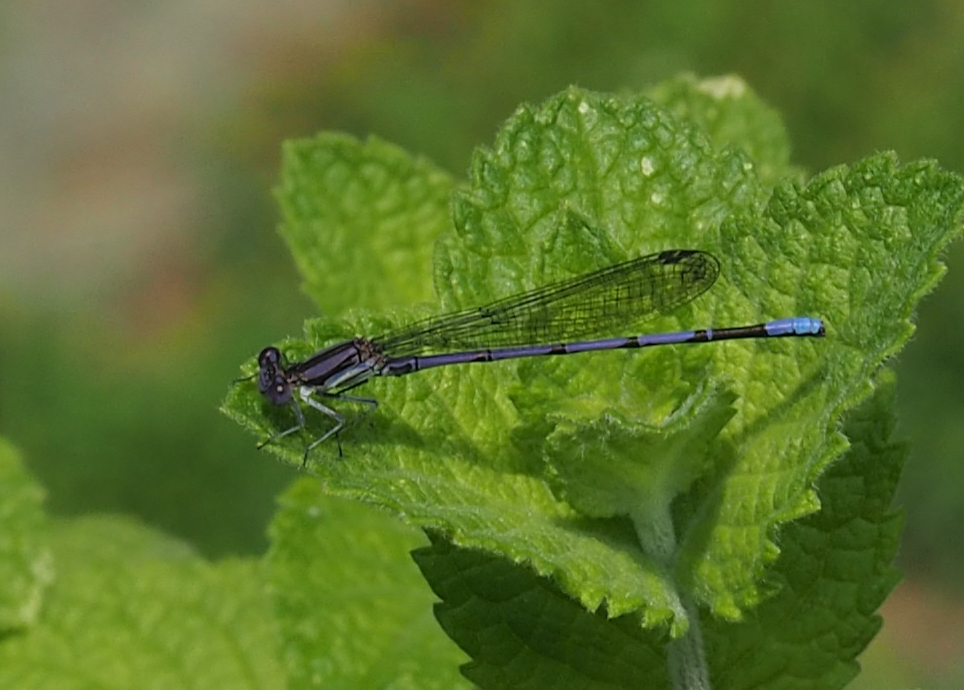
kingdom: Animalia
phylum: Arthropoda
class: Insecta
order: Odonata
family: Coenagrionidae
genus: Argia
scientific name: Argia fumipennis
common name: Variable dancer
